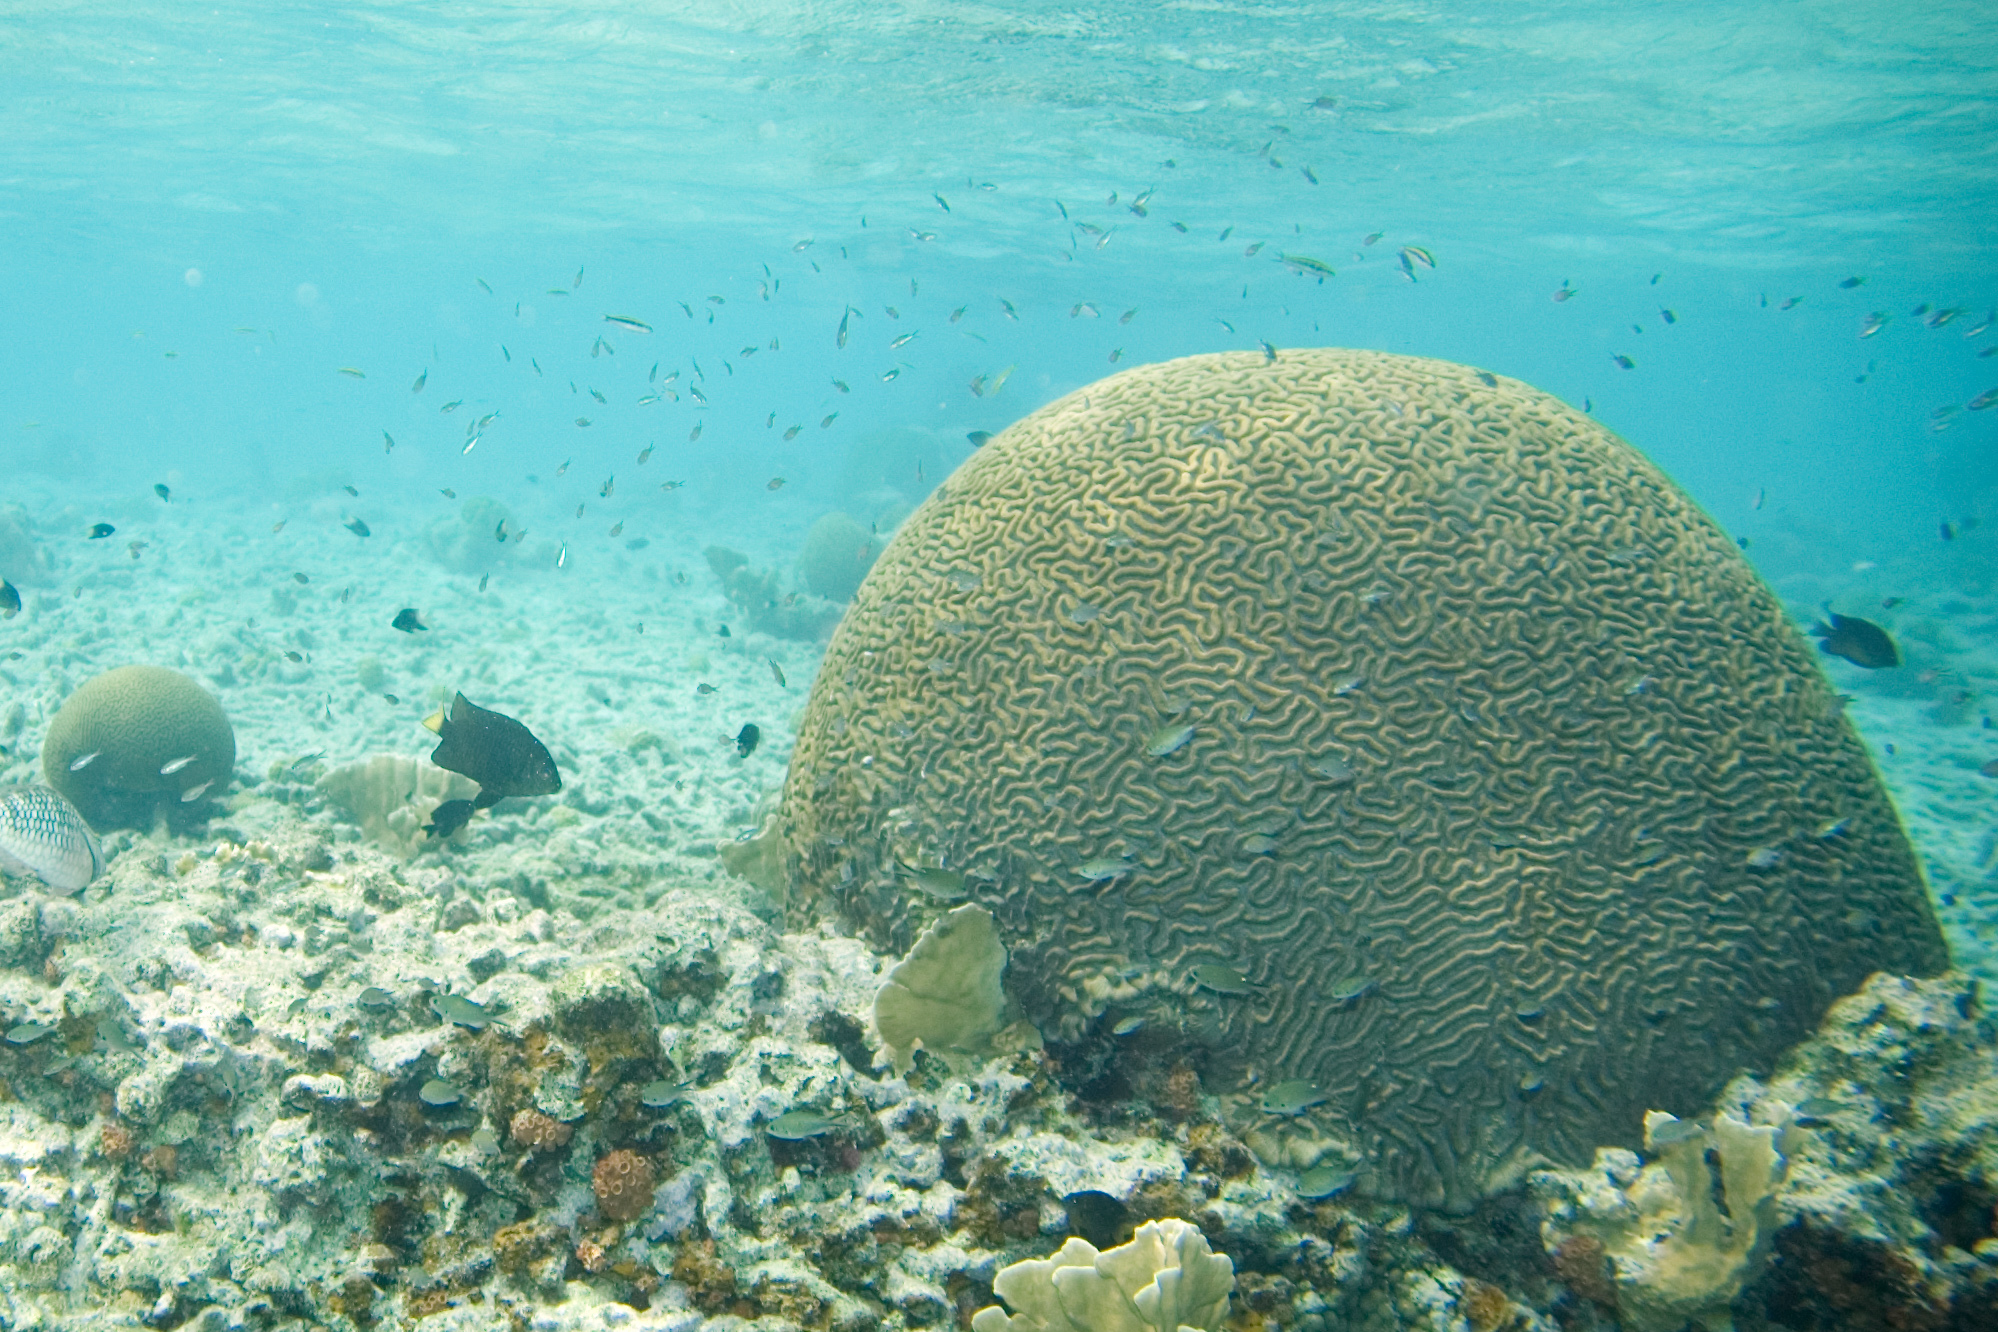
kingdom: Animalia
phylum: Cnidaria
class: Anthozoa
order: Scleractinia
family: Faviidae
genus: Pseudodiploria
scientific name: Pseudodiploria strigosa
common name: Symmetrical brain coral
